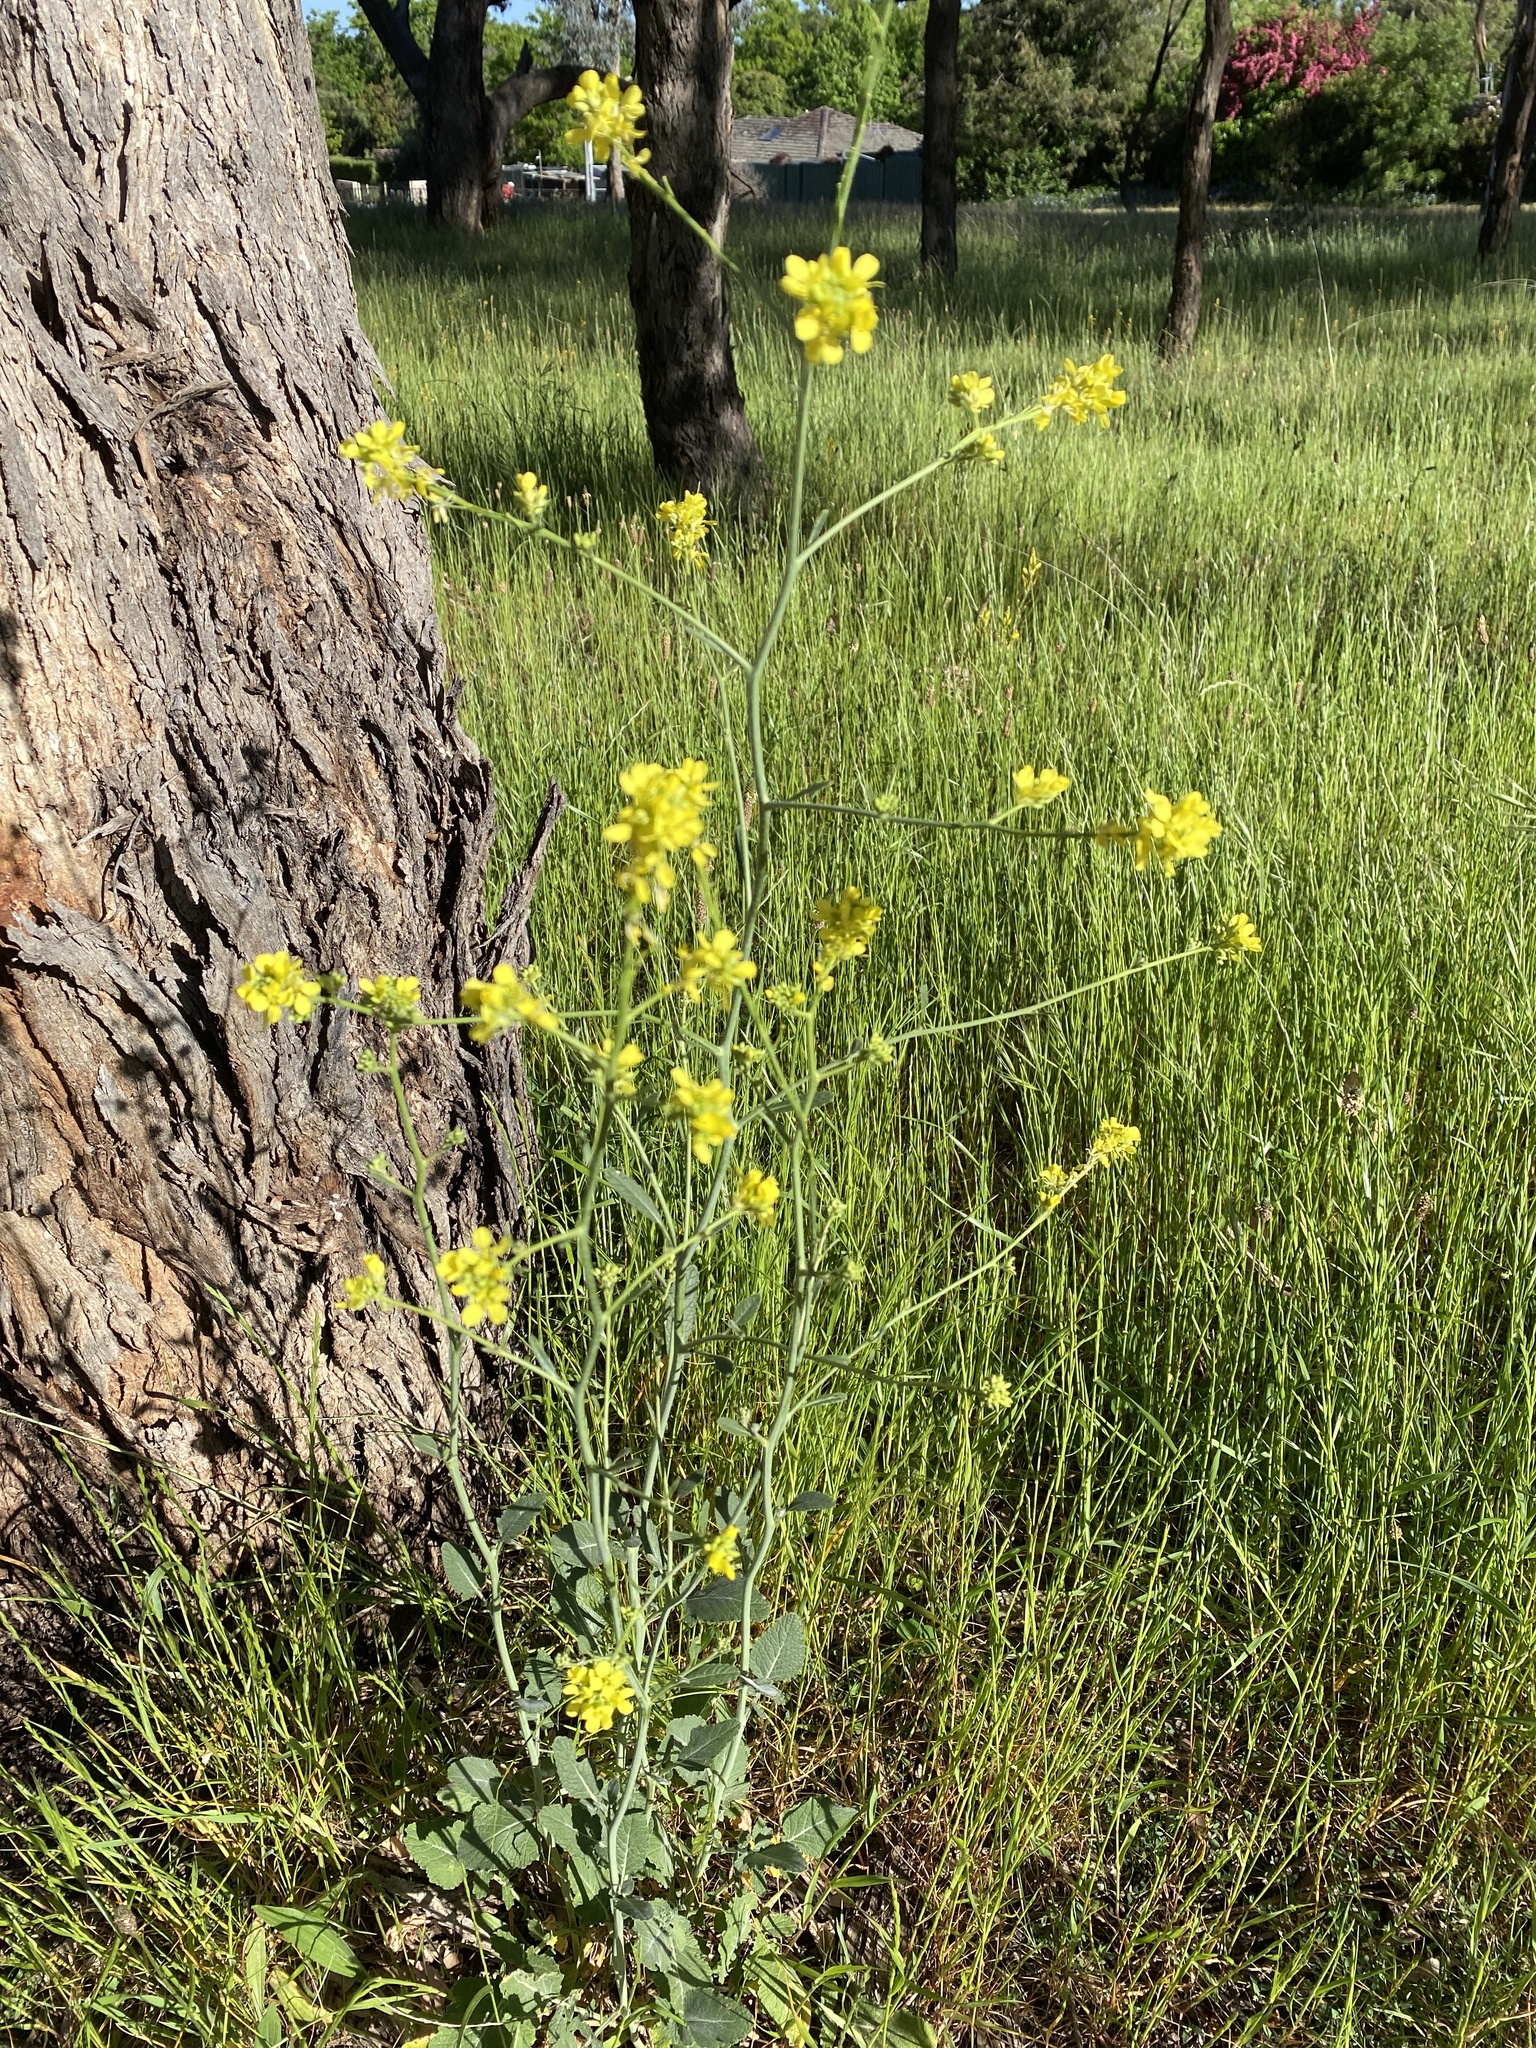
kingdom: Plantae
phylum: Tracheophyta
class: Magnoliopsida
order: Brassicales
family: Brassicaceae
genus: Hirschfeldia
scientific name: Hirschfeldia incana
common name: Hoary mustard
